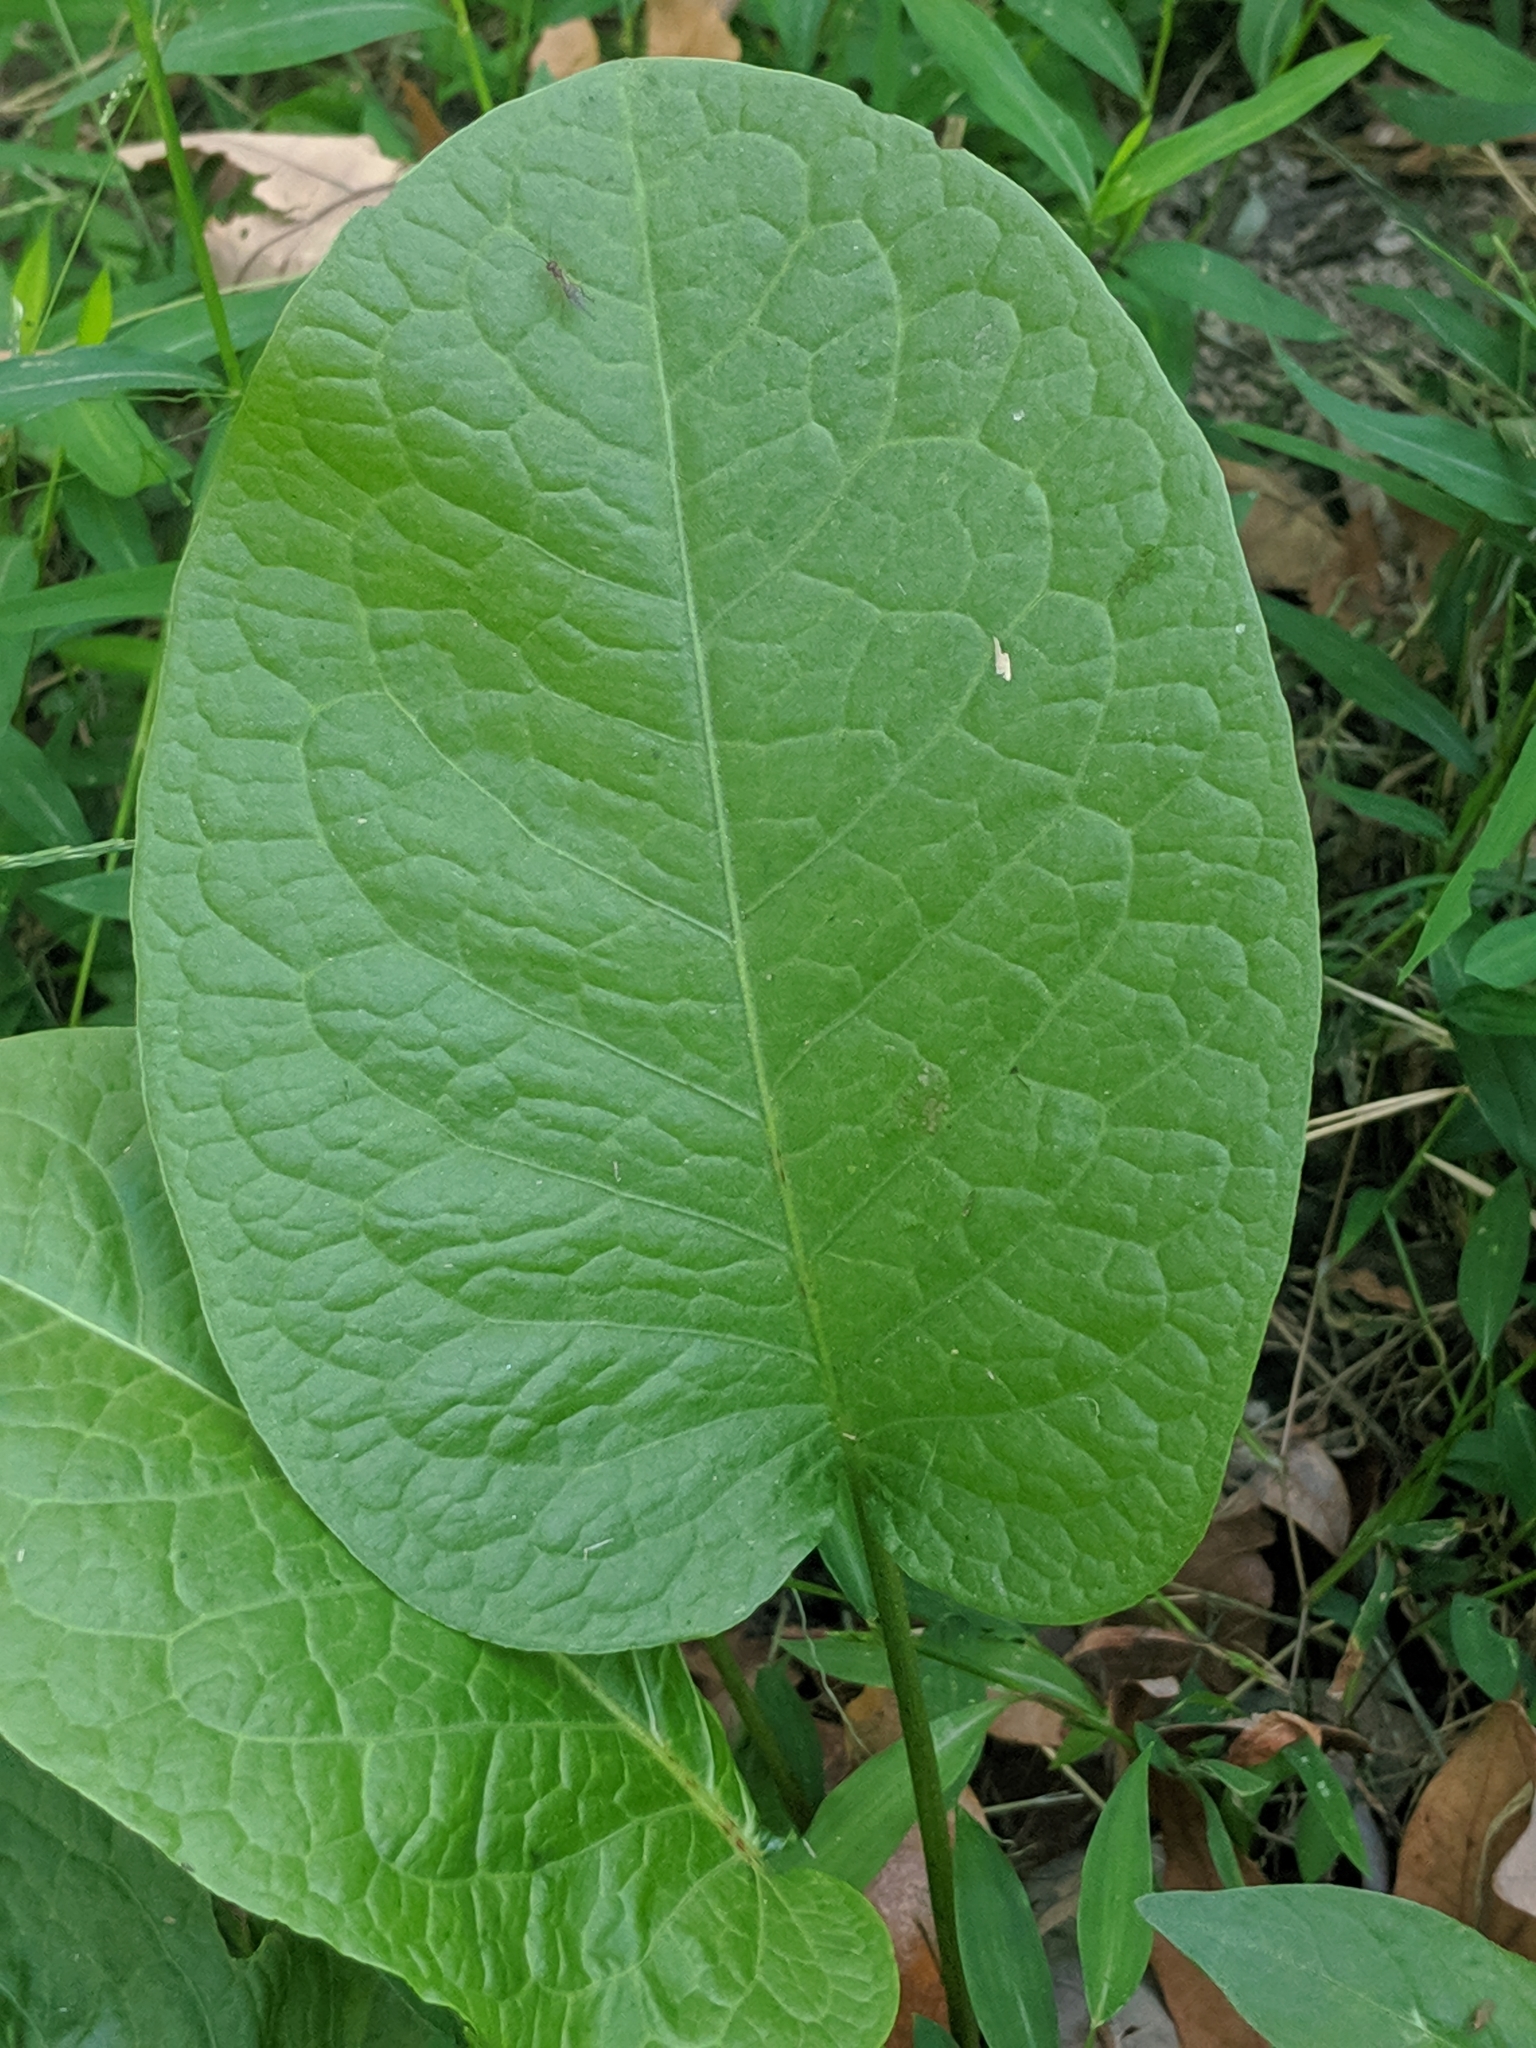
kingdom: Plantae
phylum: Tracheophyta
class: Magnoliopsida
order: Caryophyllales
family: Polygonaceae
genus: Rumex
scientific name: Rumex obtusifolius
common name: Bitter dock
